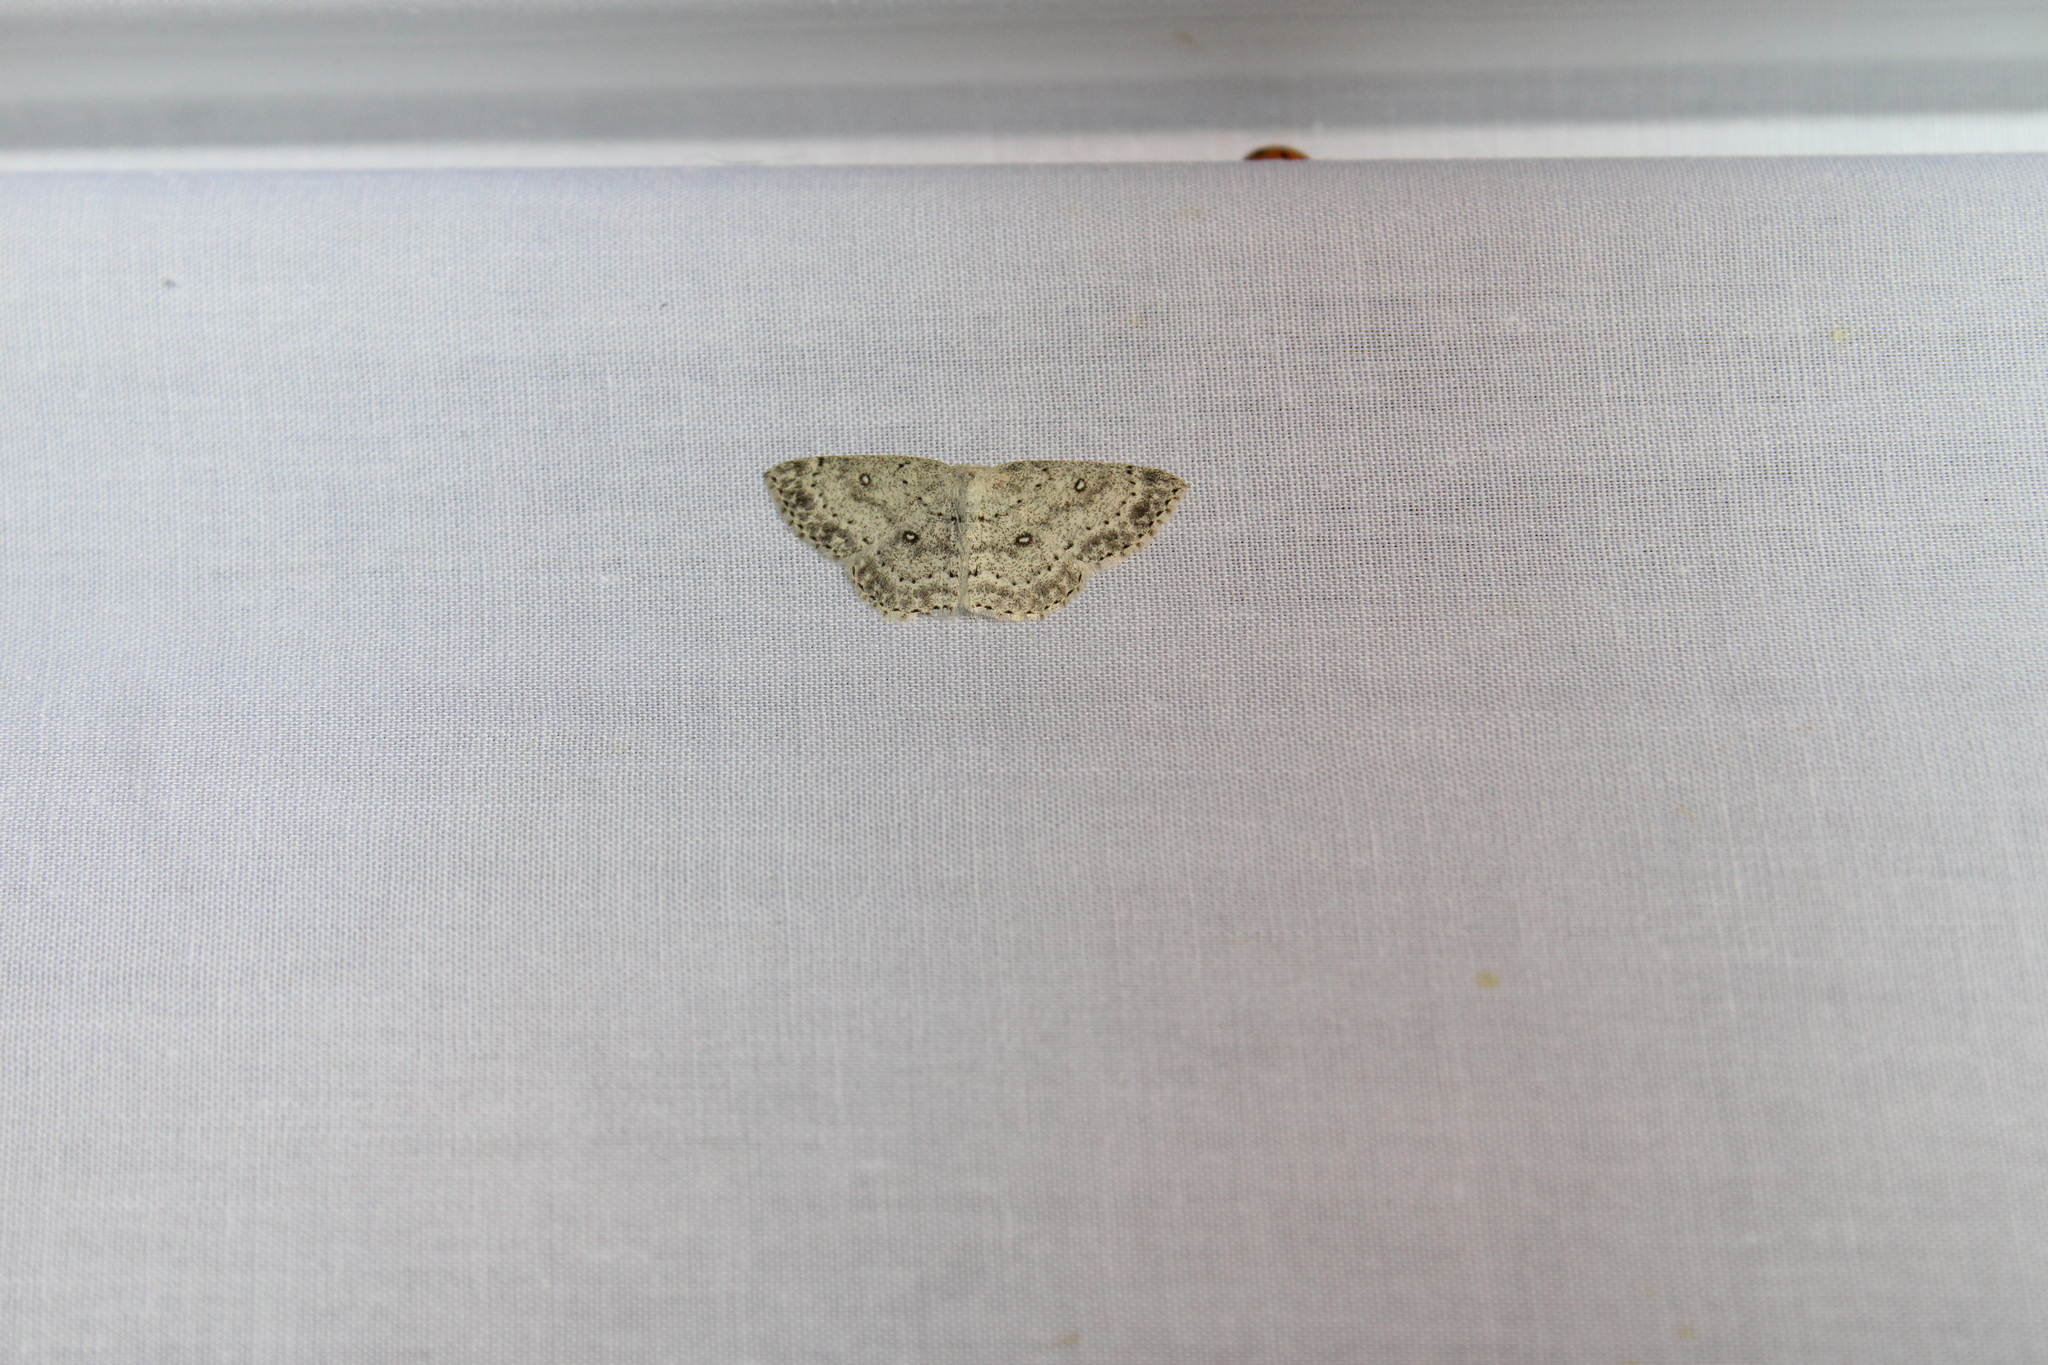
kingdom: Animalia
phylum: Arthropoda
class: Insecta
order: Lepidoptera
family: Geometridae
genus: Cyclophora
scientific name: Cyclophora pendulinaria
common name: Sweet fern geometer
